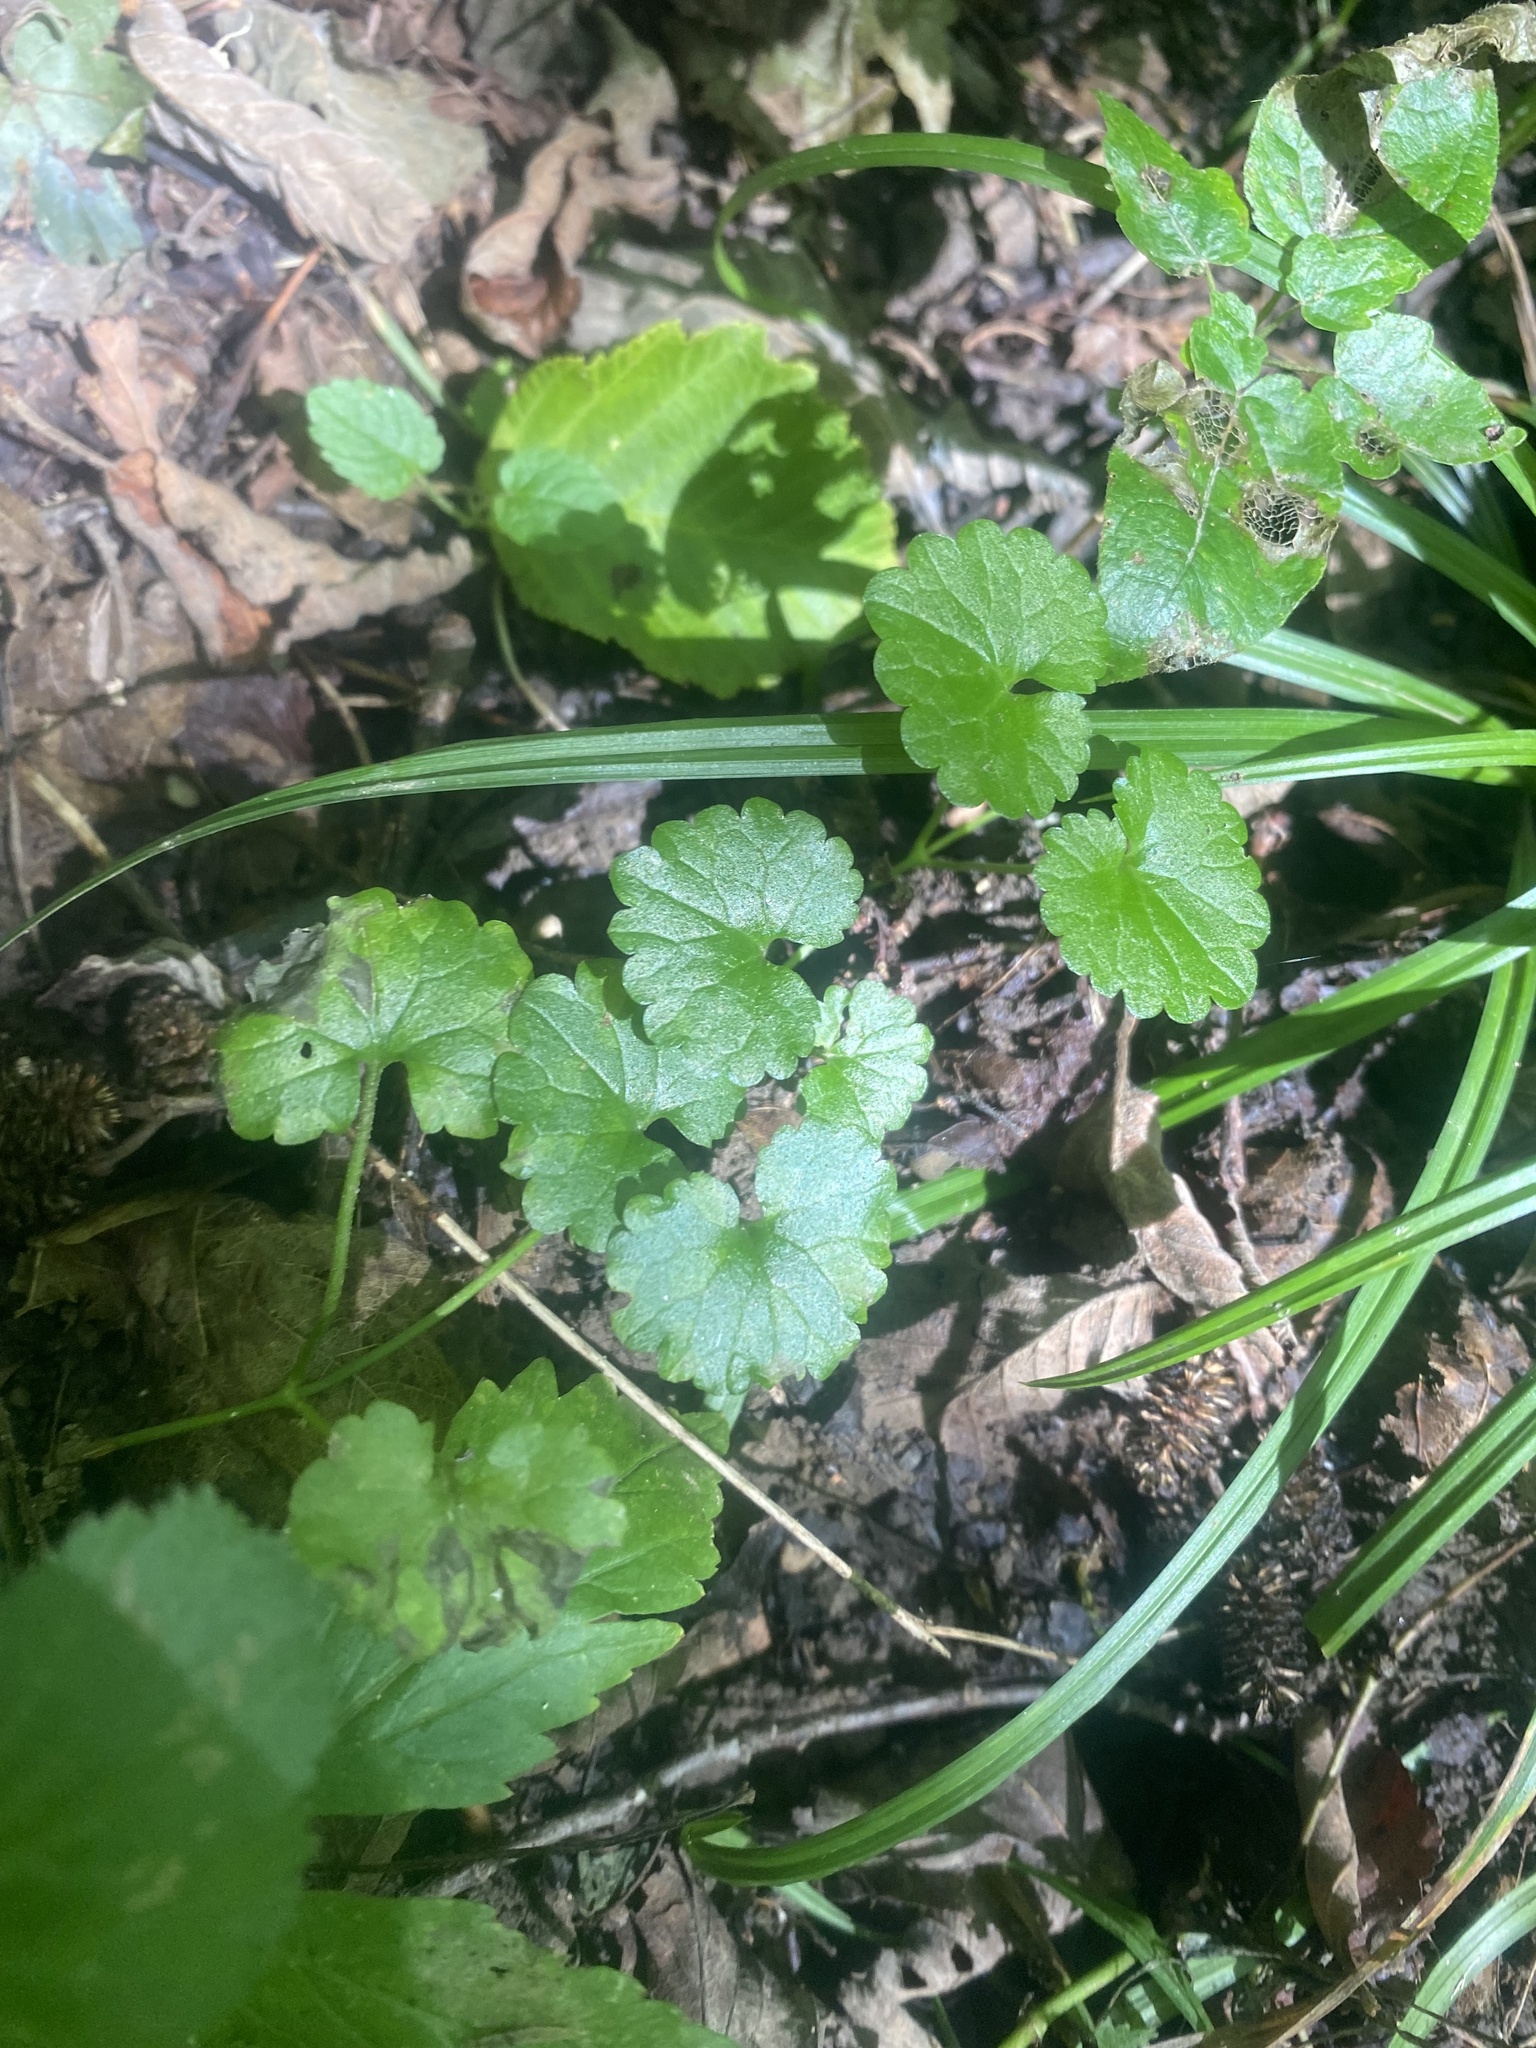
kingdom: Plantae
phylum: Tracheophyta
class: Magnoliopsida
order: Lamiales
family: Lamiaceae
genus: Glechoma
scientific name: Glechoma hederacea
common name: Ground ivy
